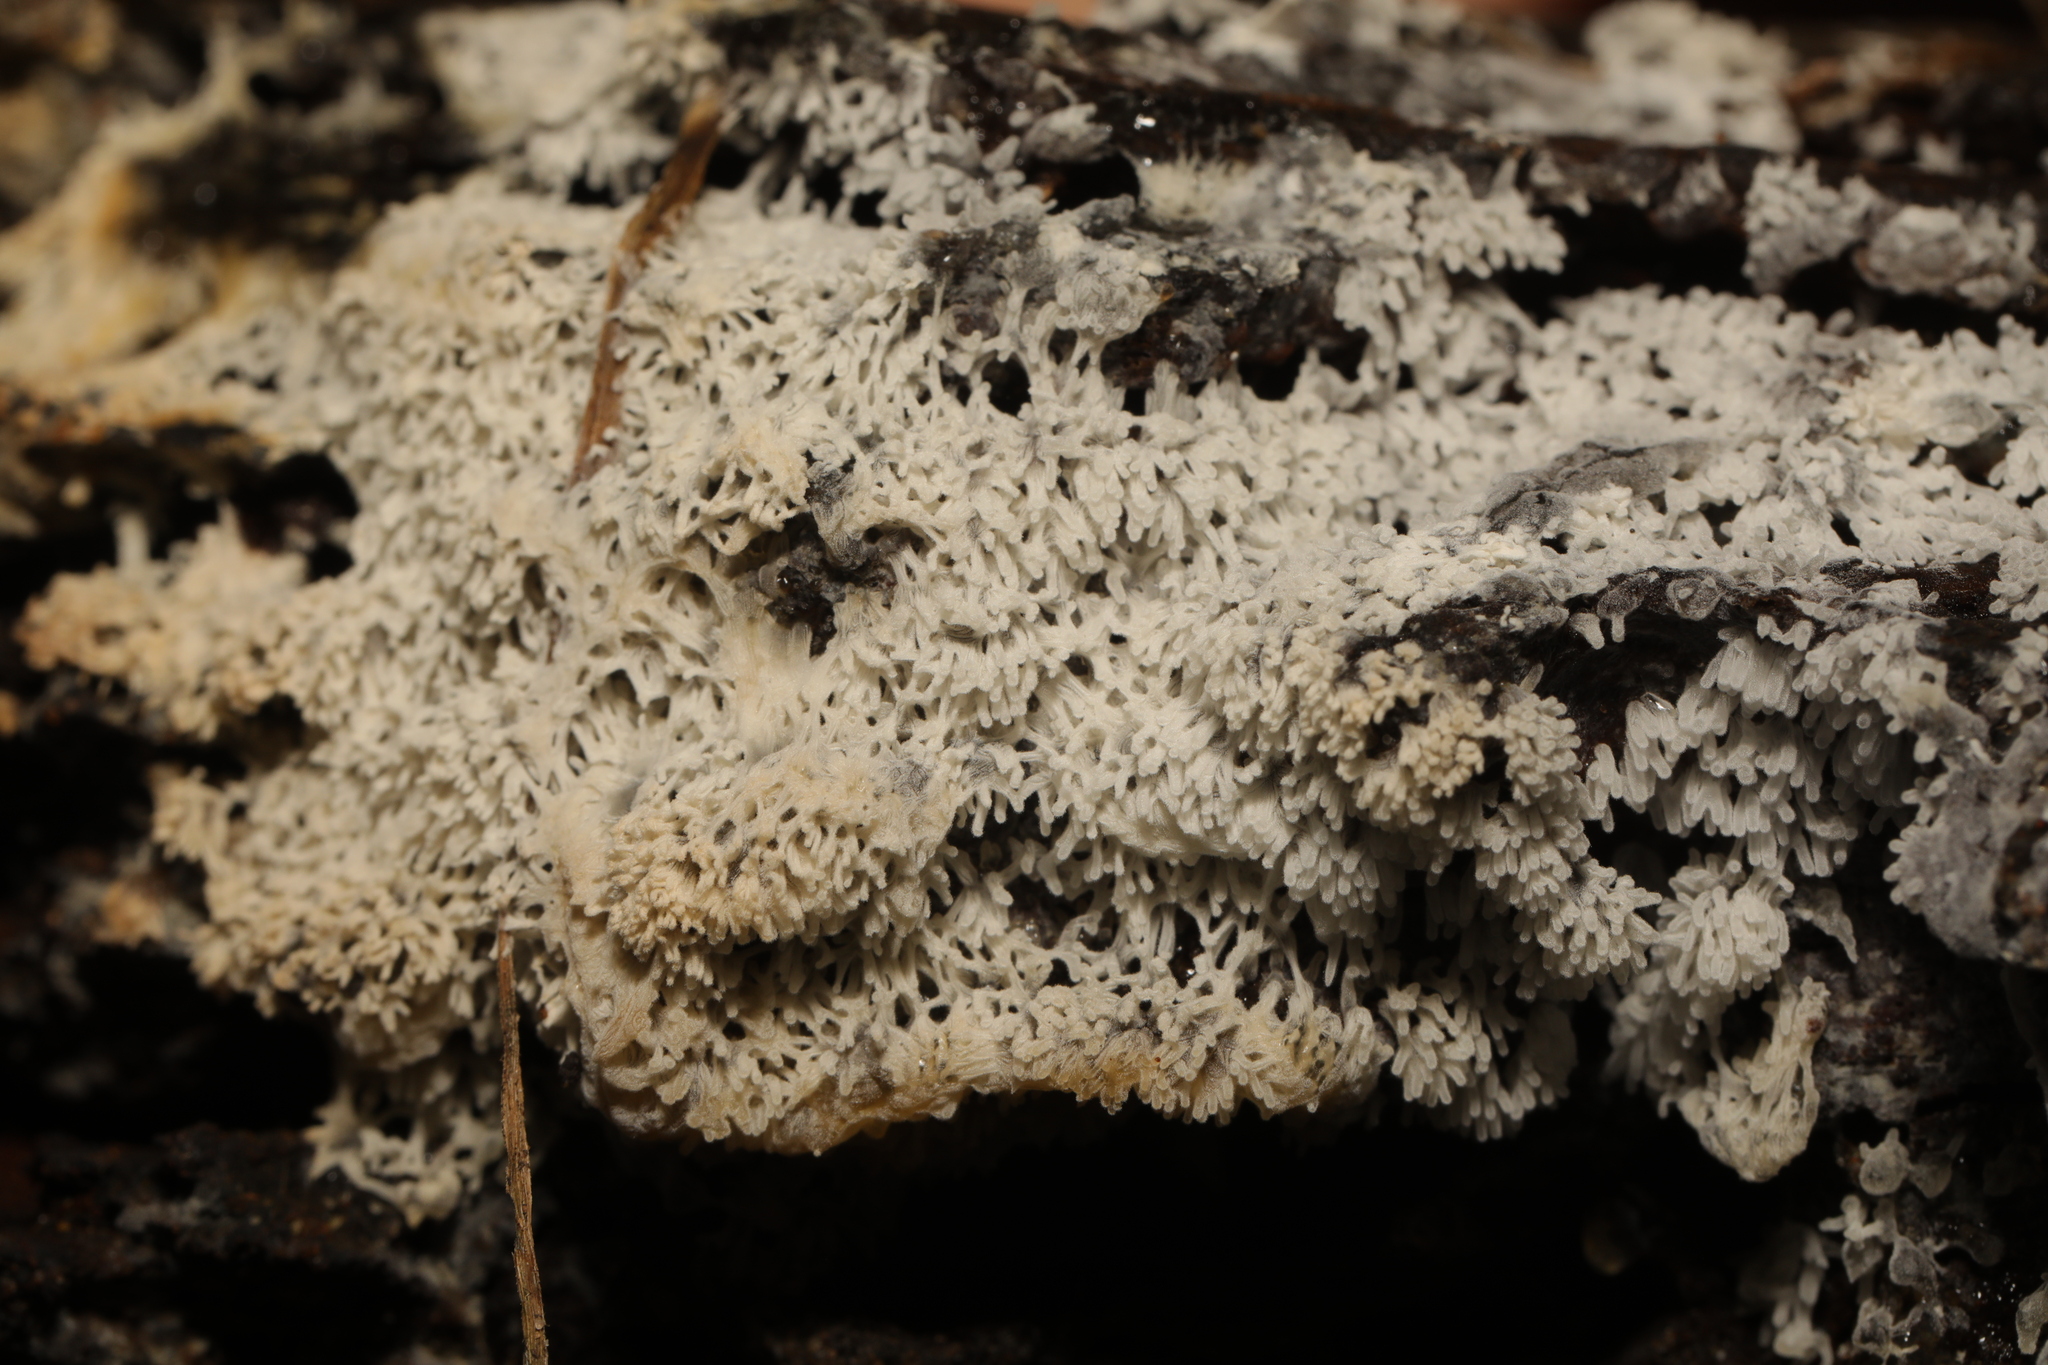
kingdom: Protozoa
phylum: Mycetozoa
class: Protosteliomycetes
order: Ceratiomyxales
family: Ceratiomyxaceae
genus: Ceratiomyxa
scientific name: Ceratiomyxa fruticulosa
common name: Honeycomb coral slime mold
